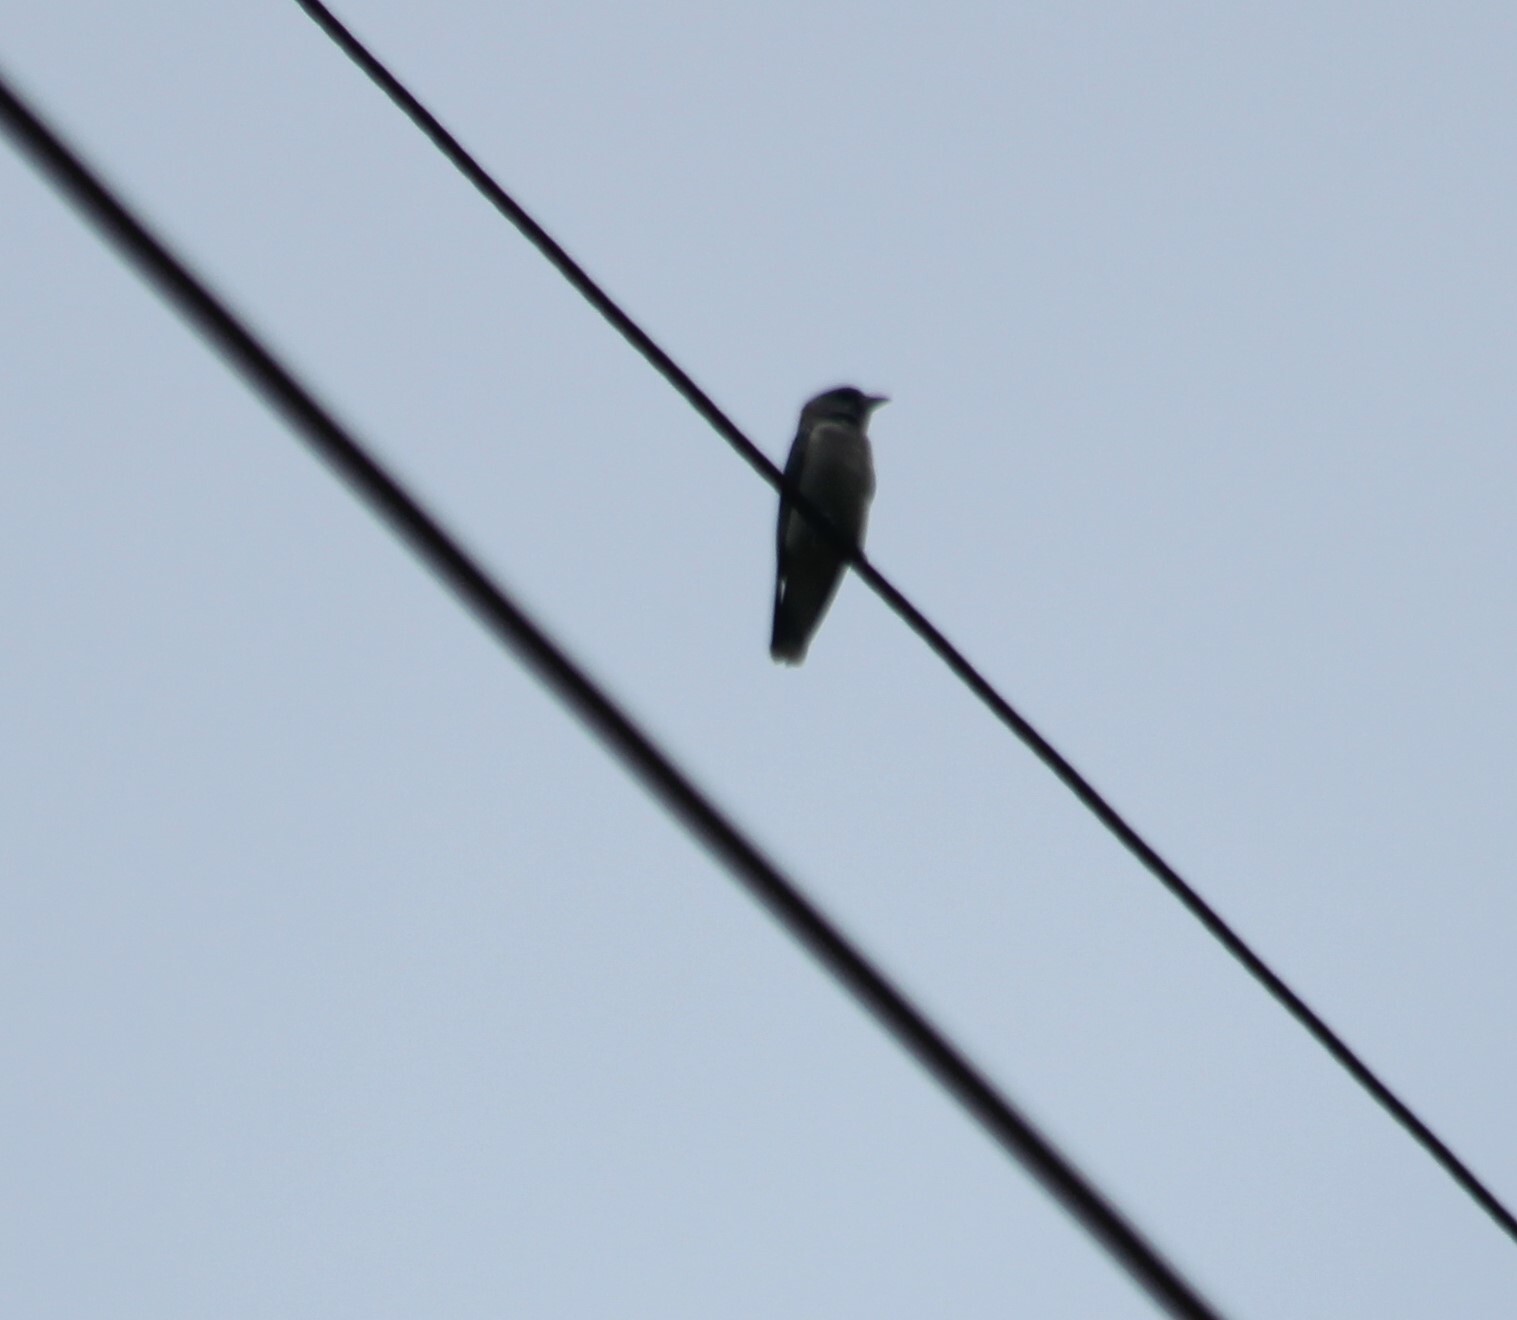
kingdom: Animalia
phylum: Chordata
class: Aves
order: Passeriformes
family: Artamidae
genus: Artamus
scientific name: Artamus fuscus
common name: Ashy woodswallow
